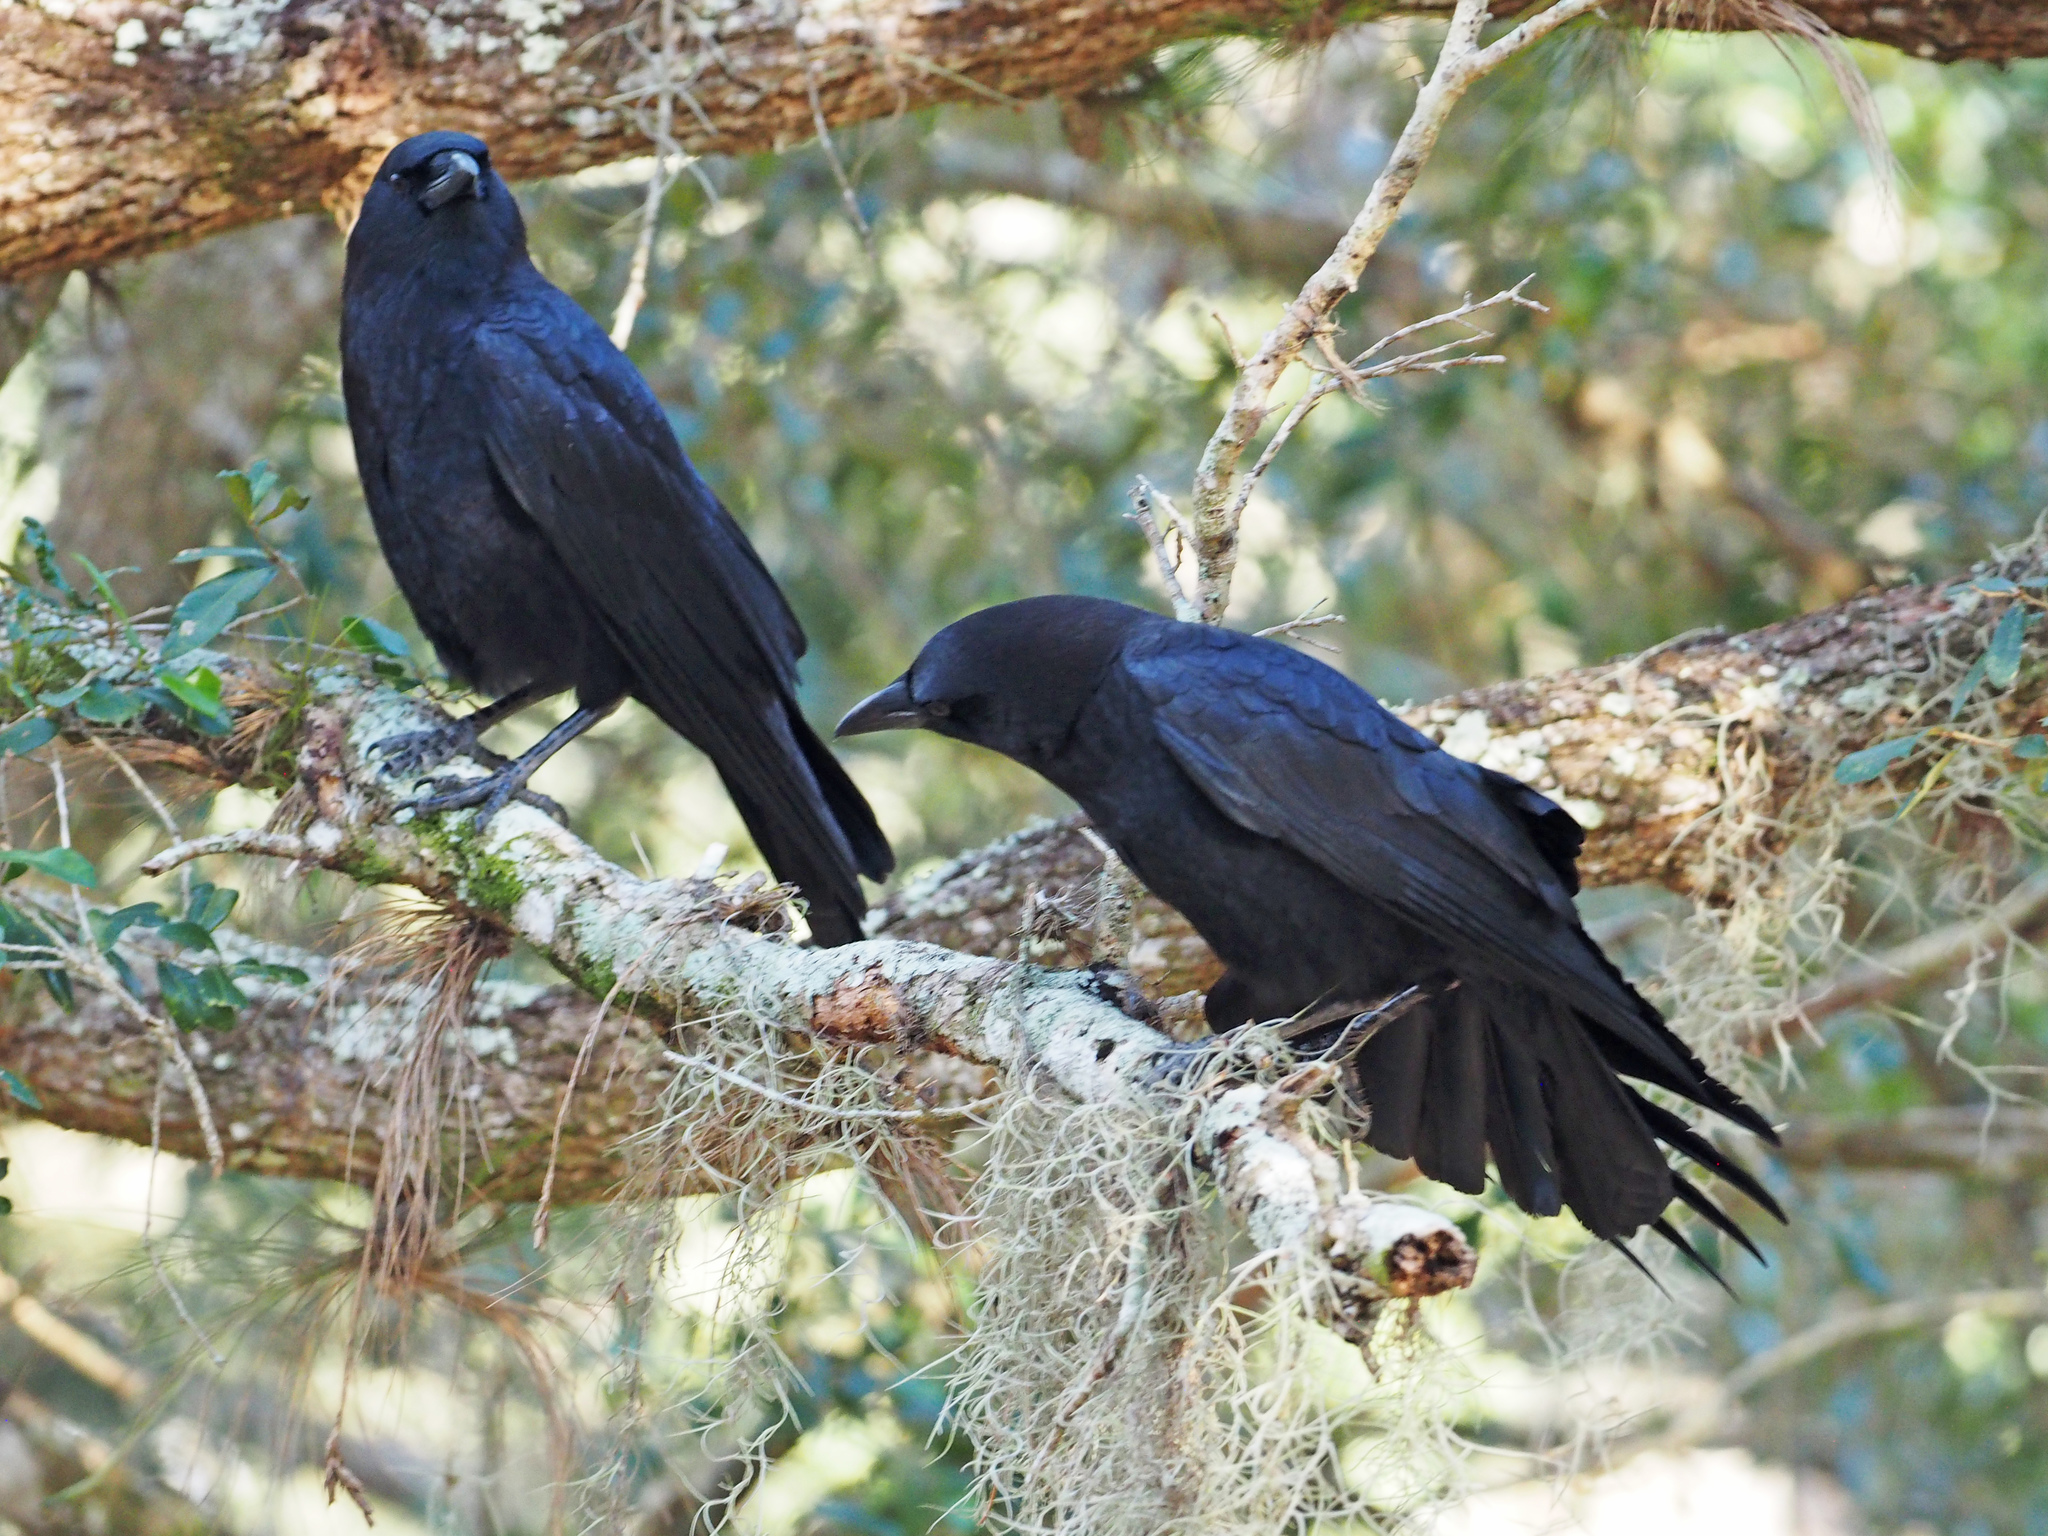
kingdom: Animalia
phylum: Chordata
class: Aves
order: Passeriformes
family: Corvidae
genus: Corvus
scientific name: Corvus brachyrhynchos
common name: American crow
